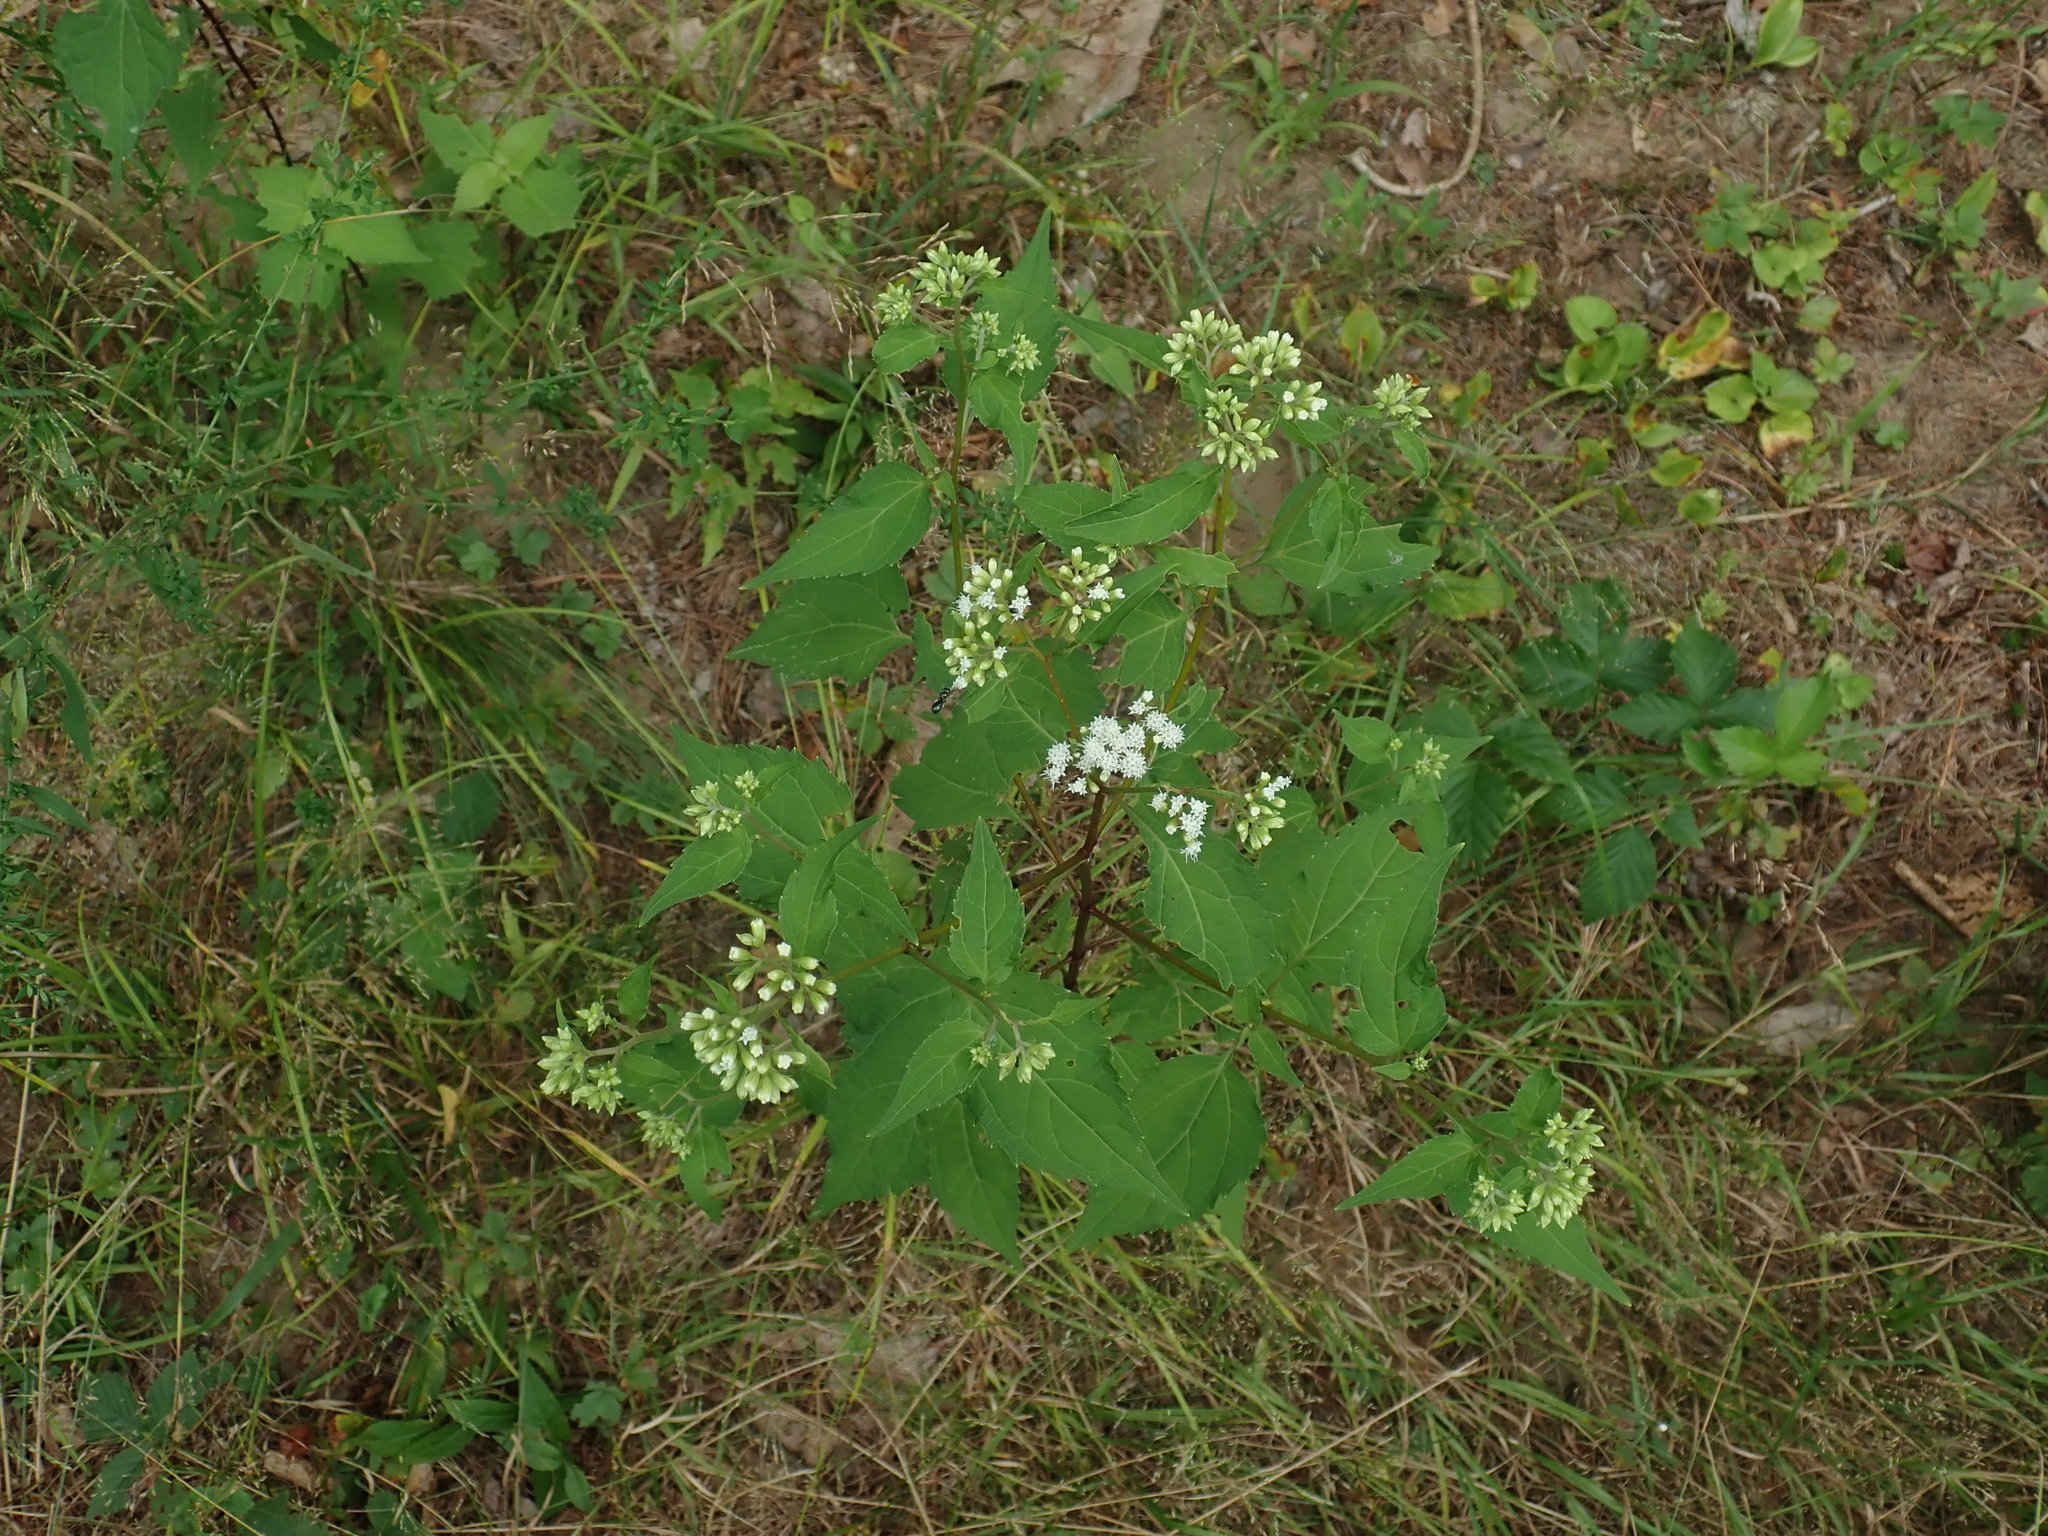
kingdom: Plantae
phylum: Tracheophyta
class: Magnoliopsida
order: Asterales
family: Asteraceae
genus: Ageratina
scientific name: Ageratina altissima
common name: White snakeroot
